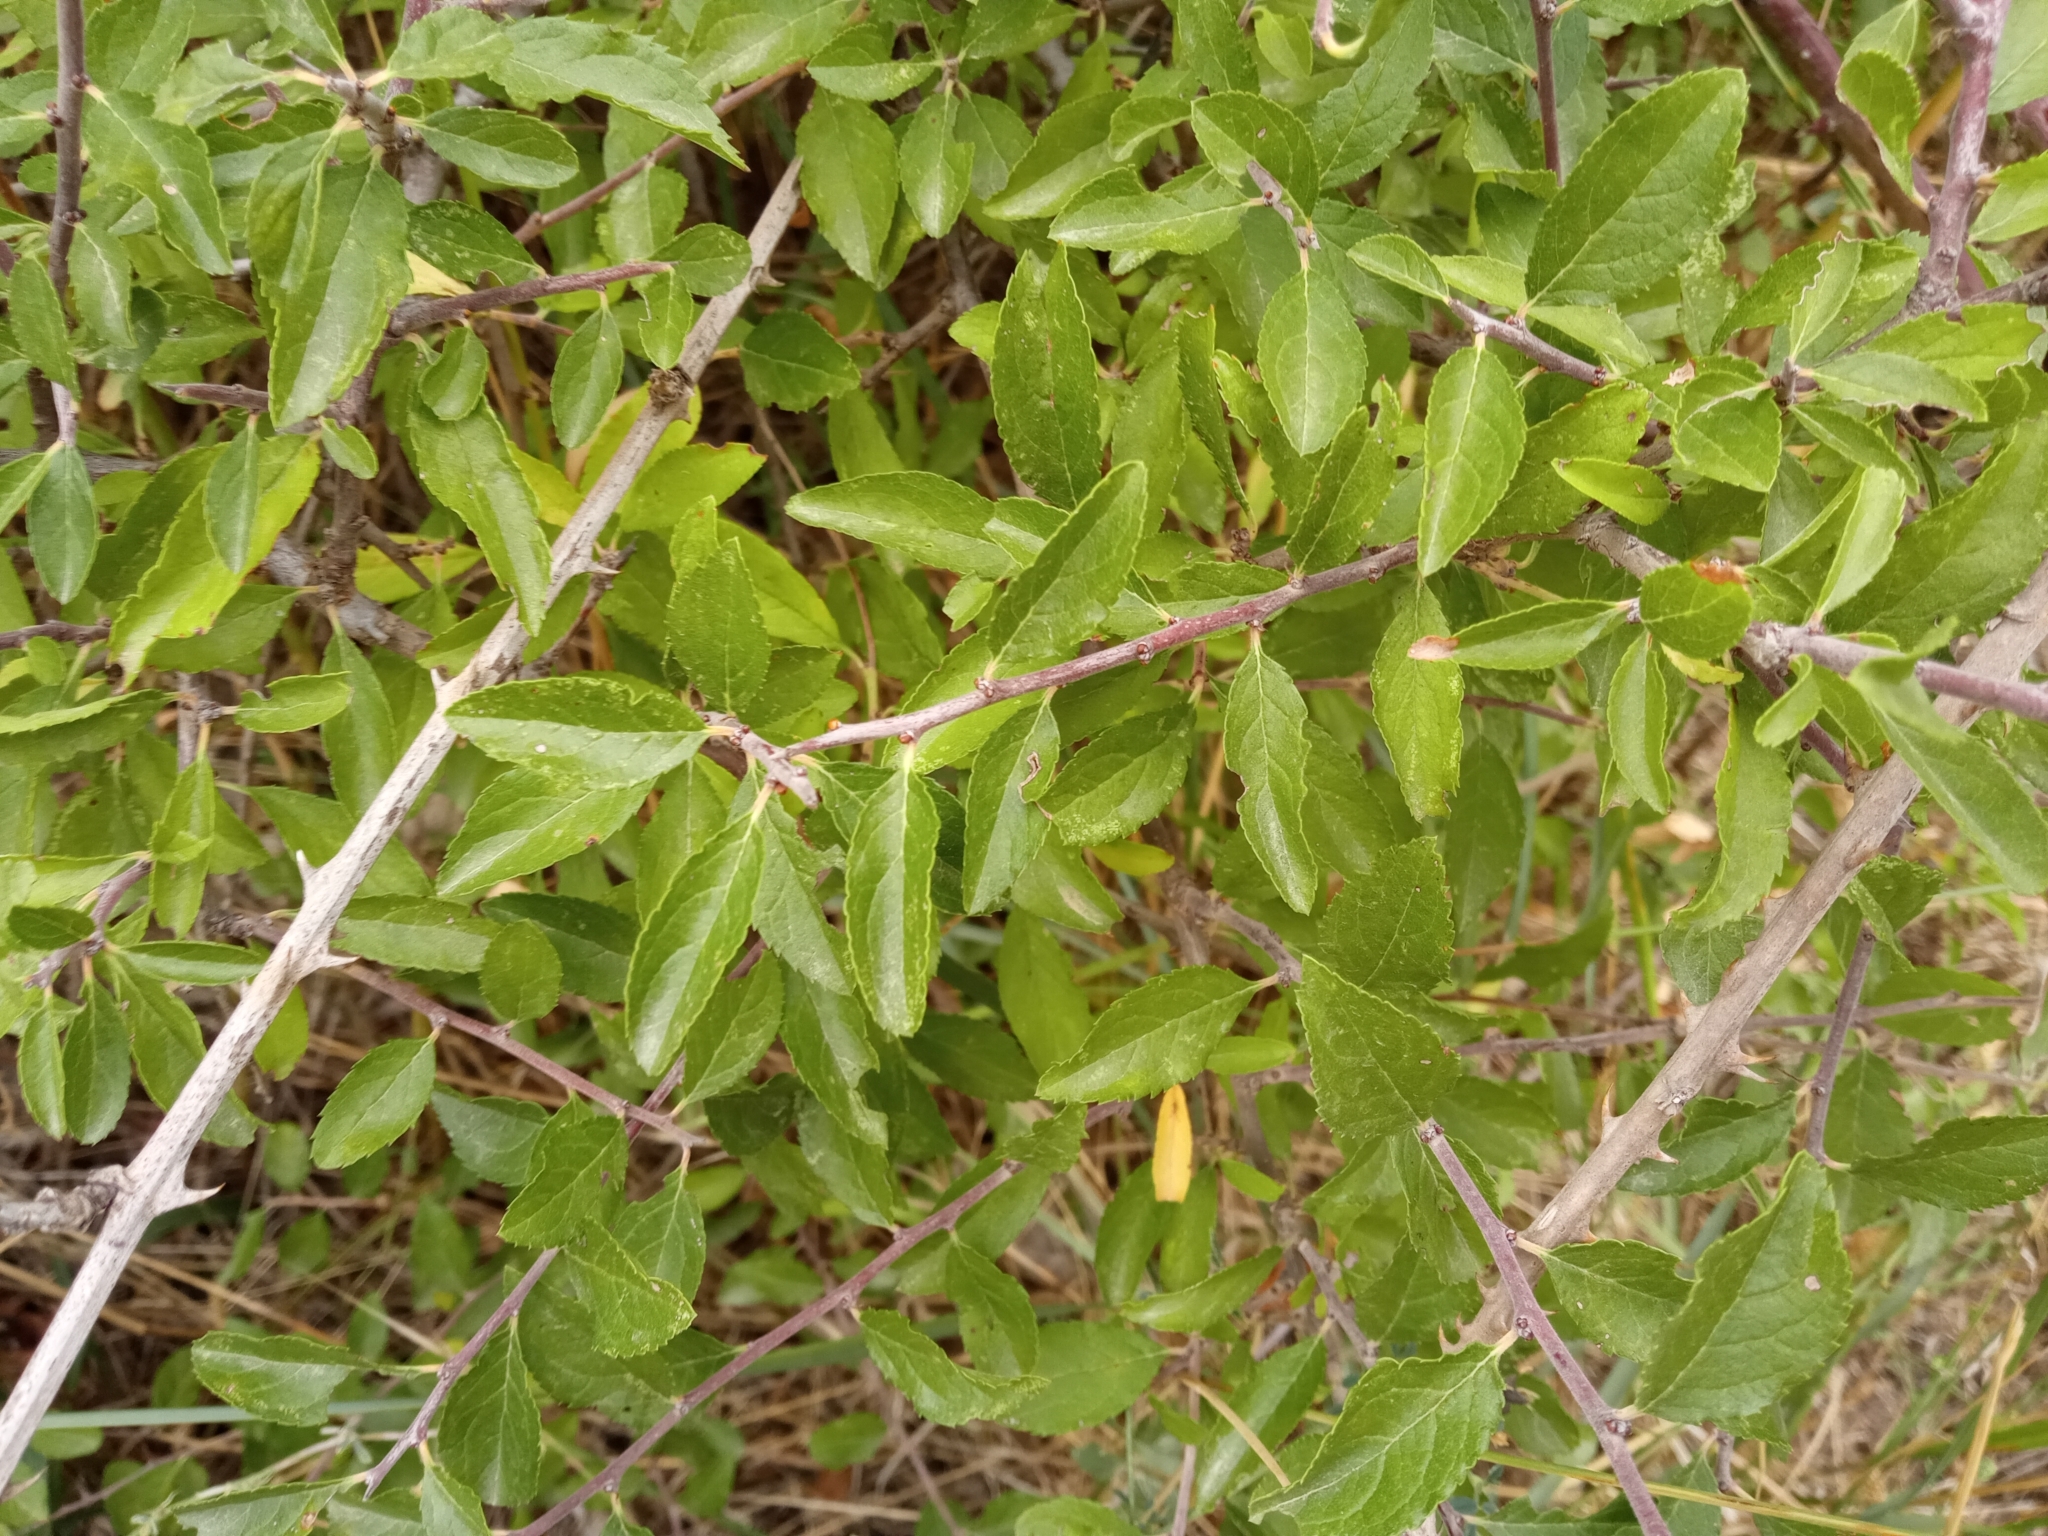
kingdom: Plantae
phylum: Tracheophyta
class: Magnoliopsida
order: Rosales
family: Rosaceae
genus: Prunus
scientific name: Prunus spinosa
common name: Blackthorn
